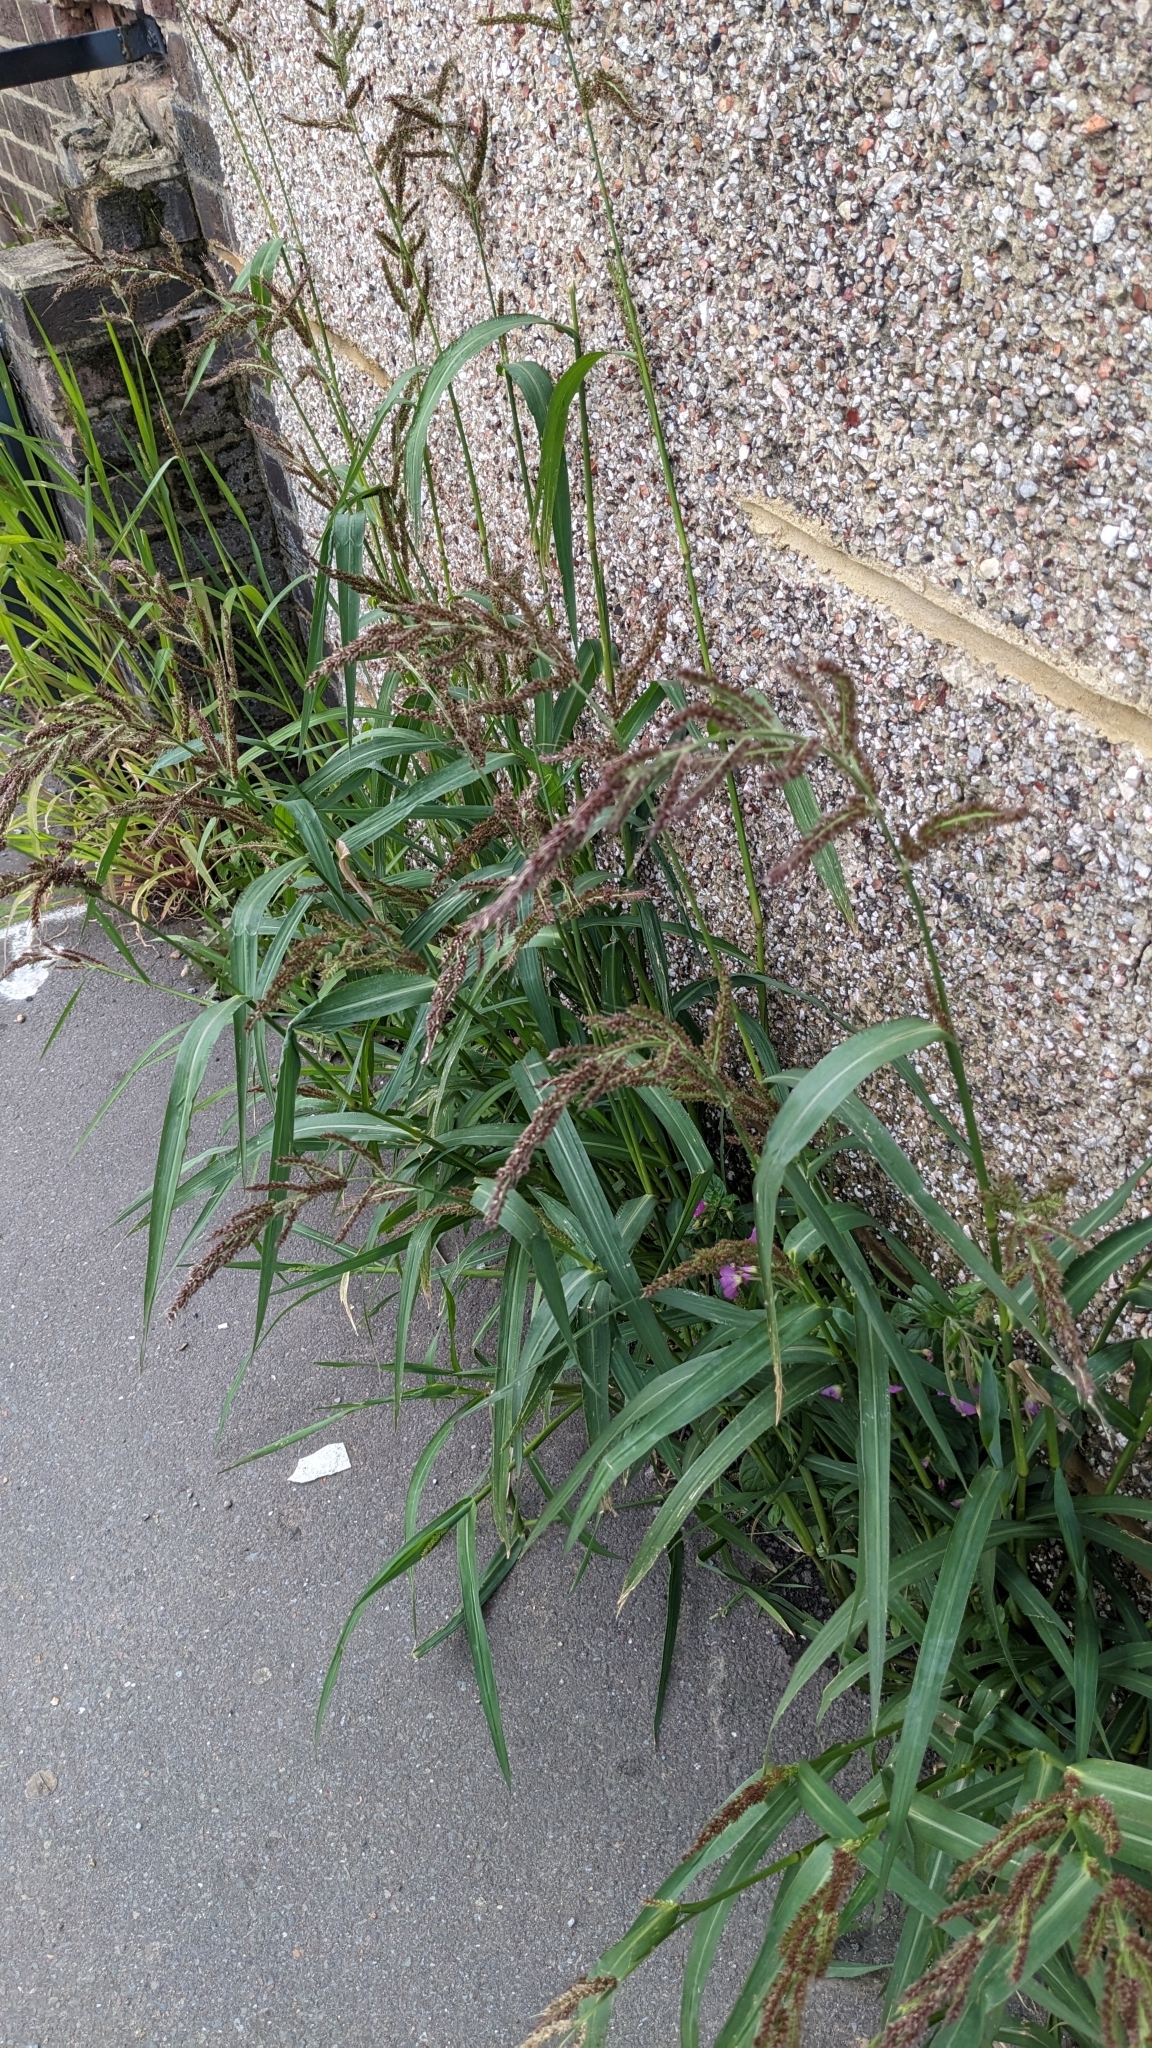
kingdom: Plantae
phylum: Tracheophyta
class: Liliopsida
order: Poales
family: Poaceae
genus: Echinochloa
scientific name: Echinochloa crus-galli
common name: Cockspur
